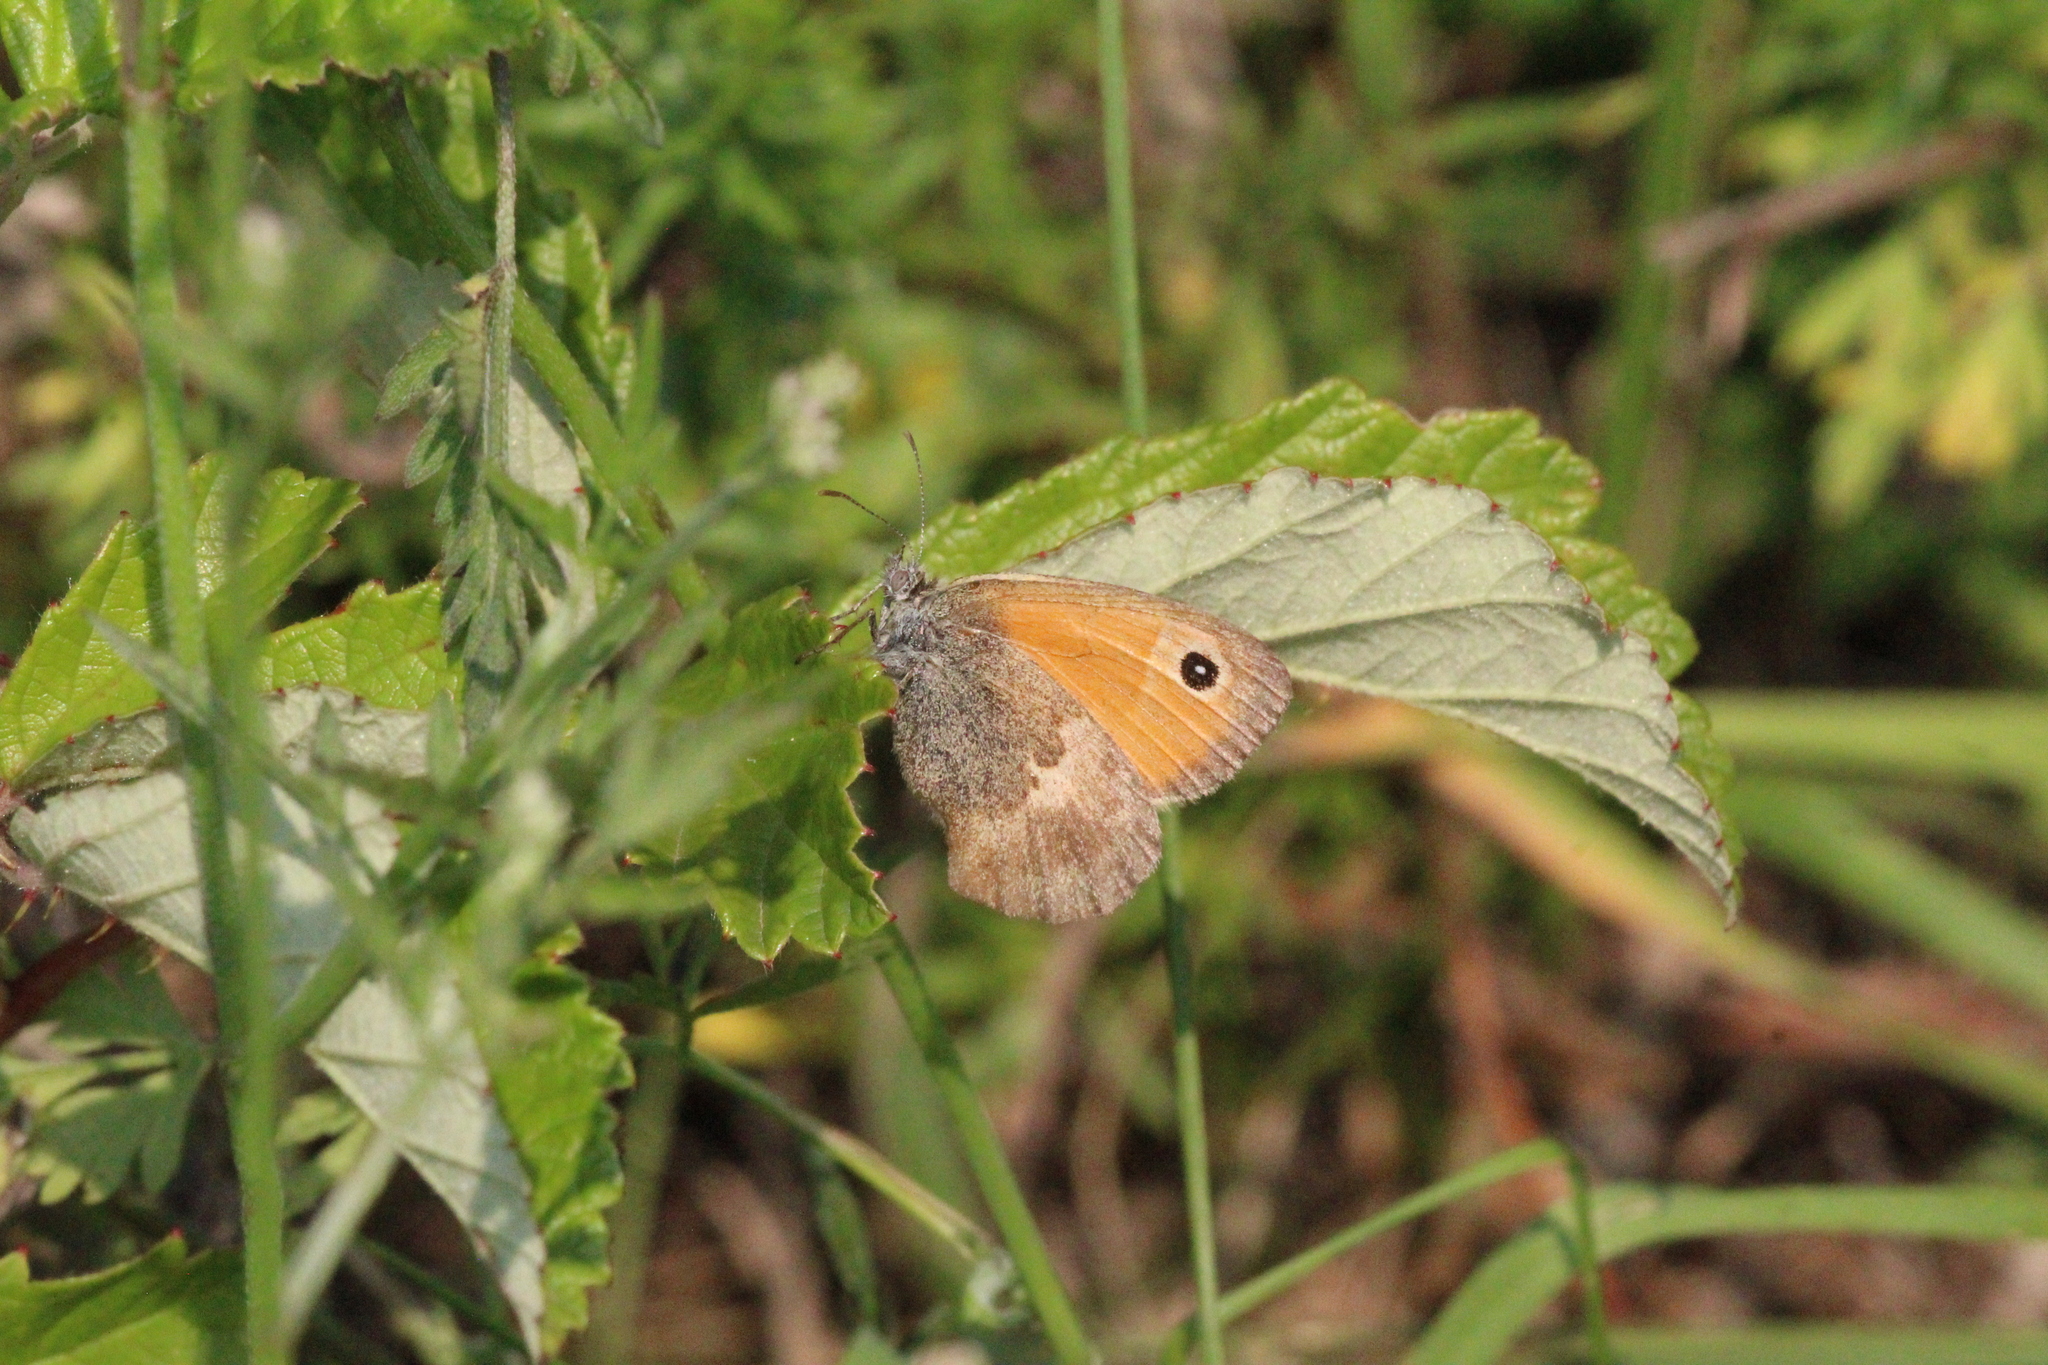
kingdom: Animalia
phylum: Arthropoda
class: Insecta
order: Lepidoptera
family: Nymphalidae
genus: Coenonympha
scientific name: Coenonympha pamphilus
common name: Small heath
